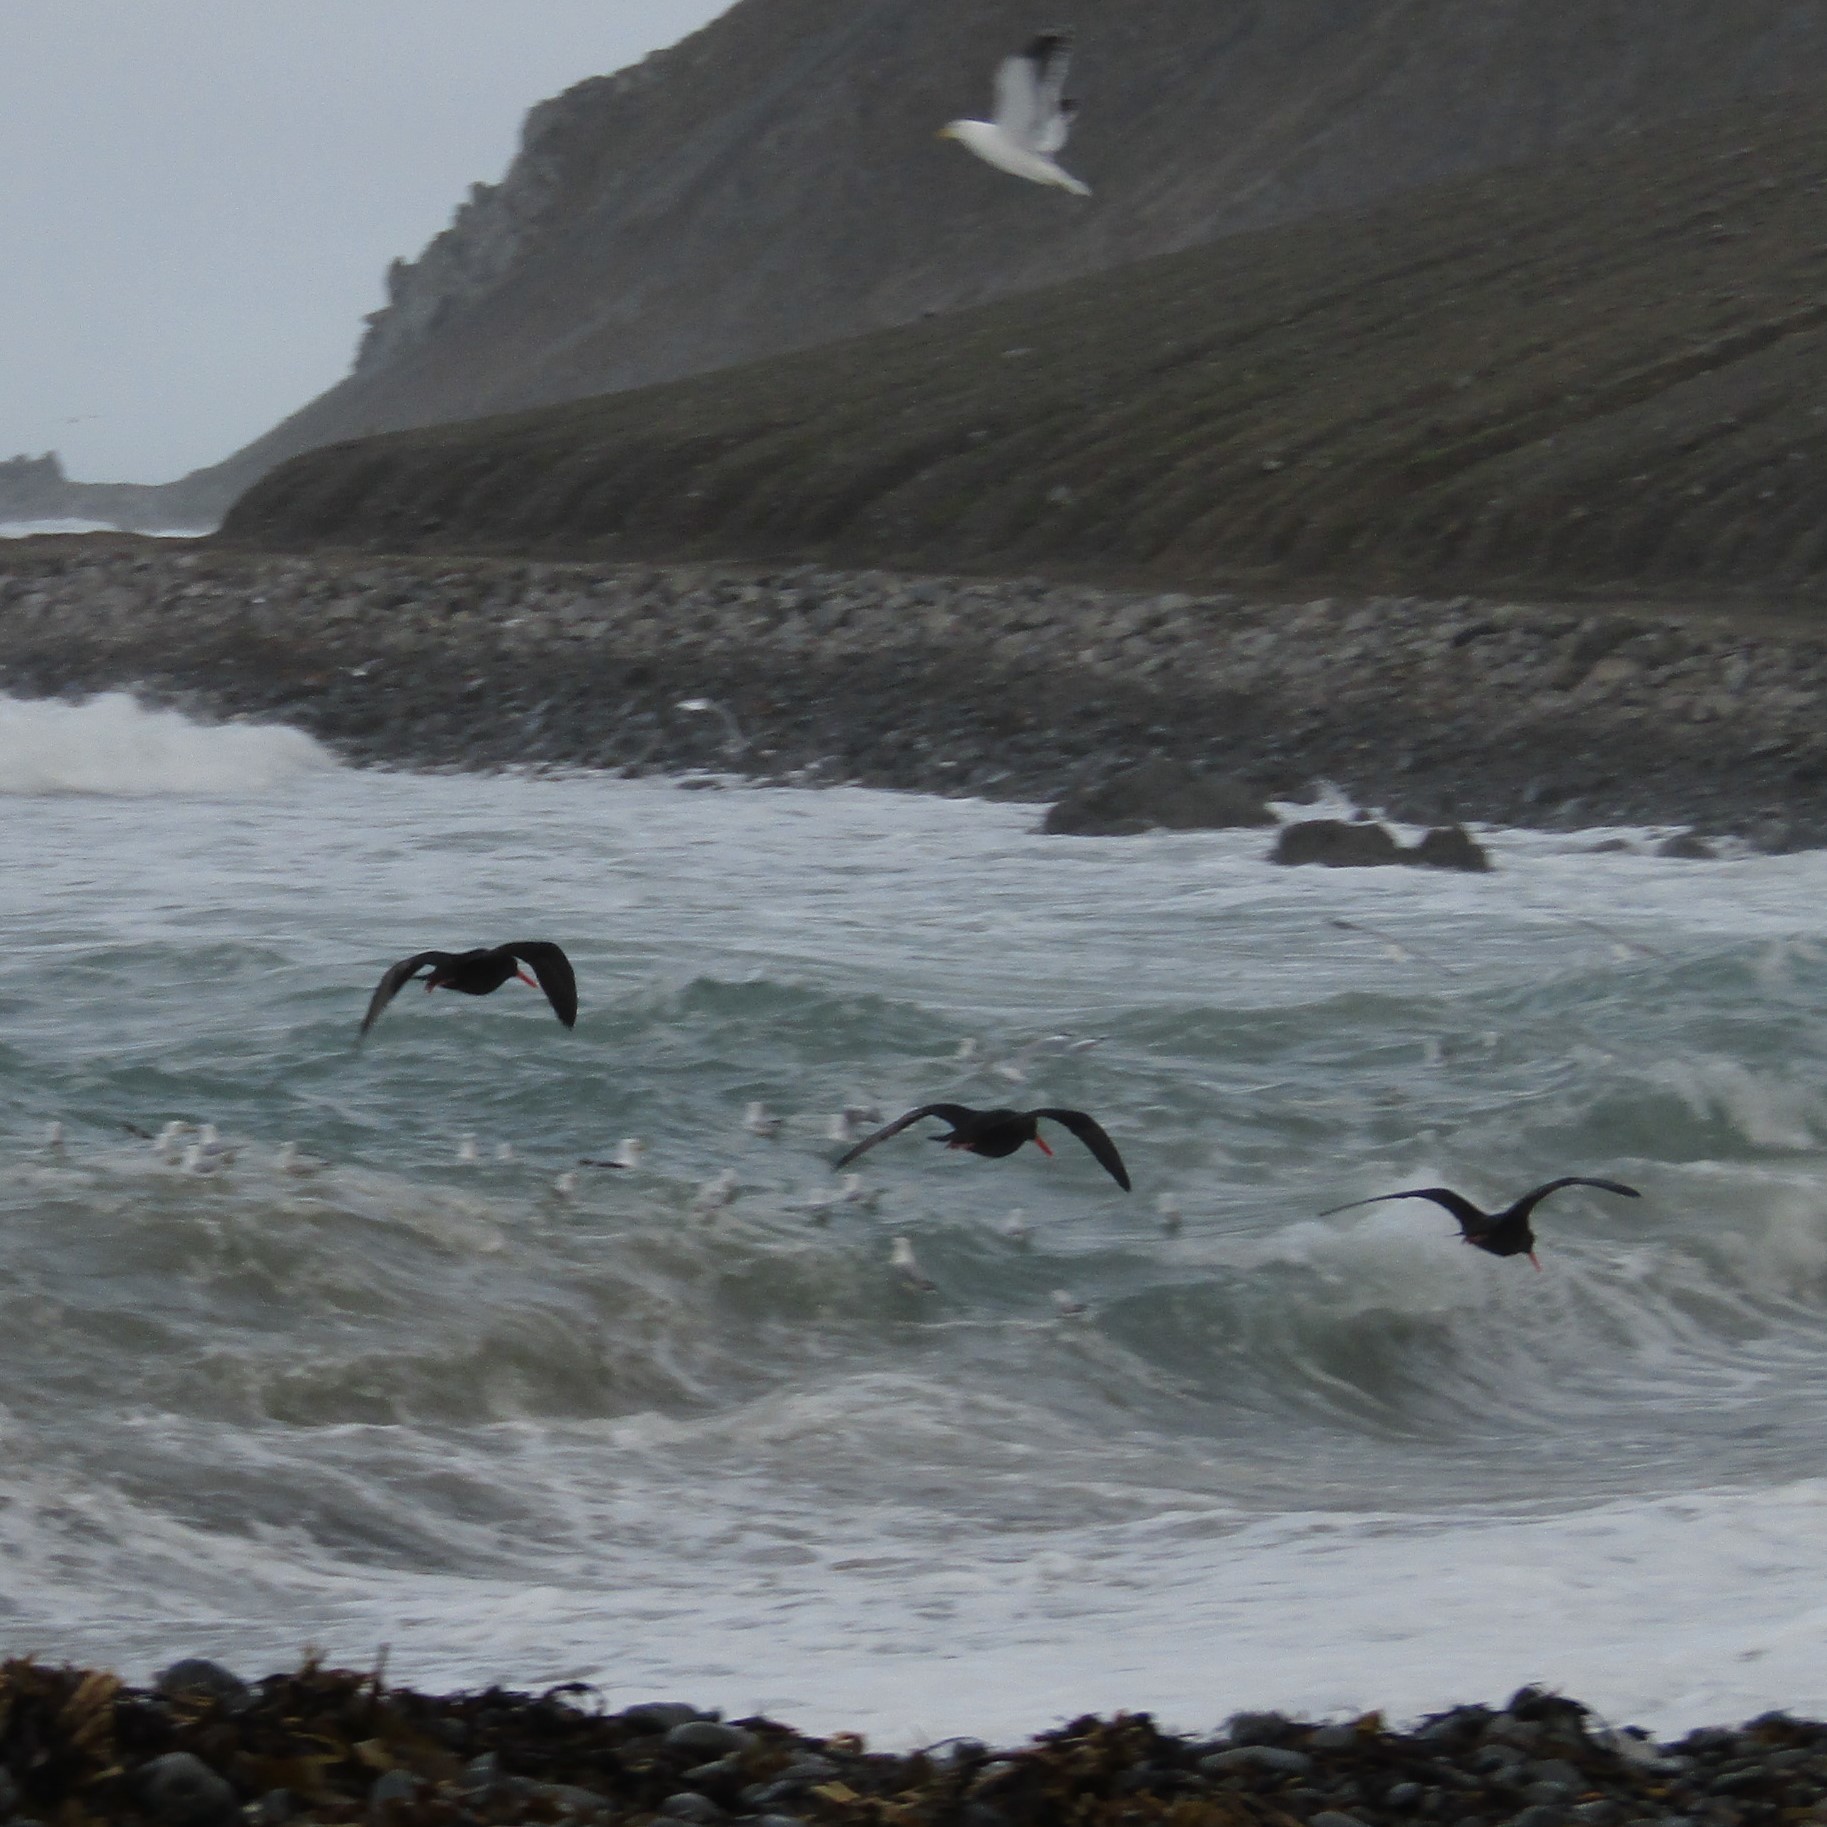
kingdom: Animalia
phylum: Chordata
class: Aves
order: Charadriiformes
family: Haematopodidae
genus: Haematopus
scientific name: Haematopus unicolor
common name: Variable oystercatcher
